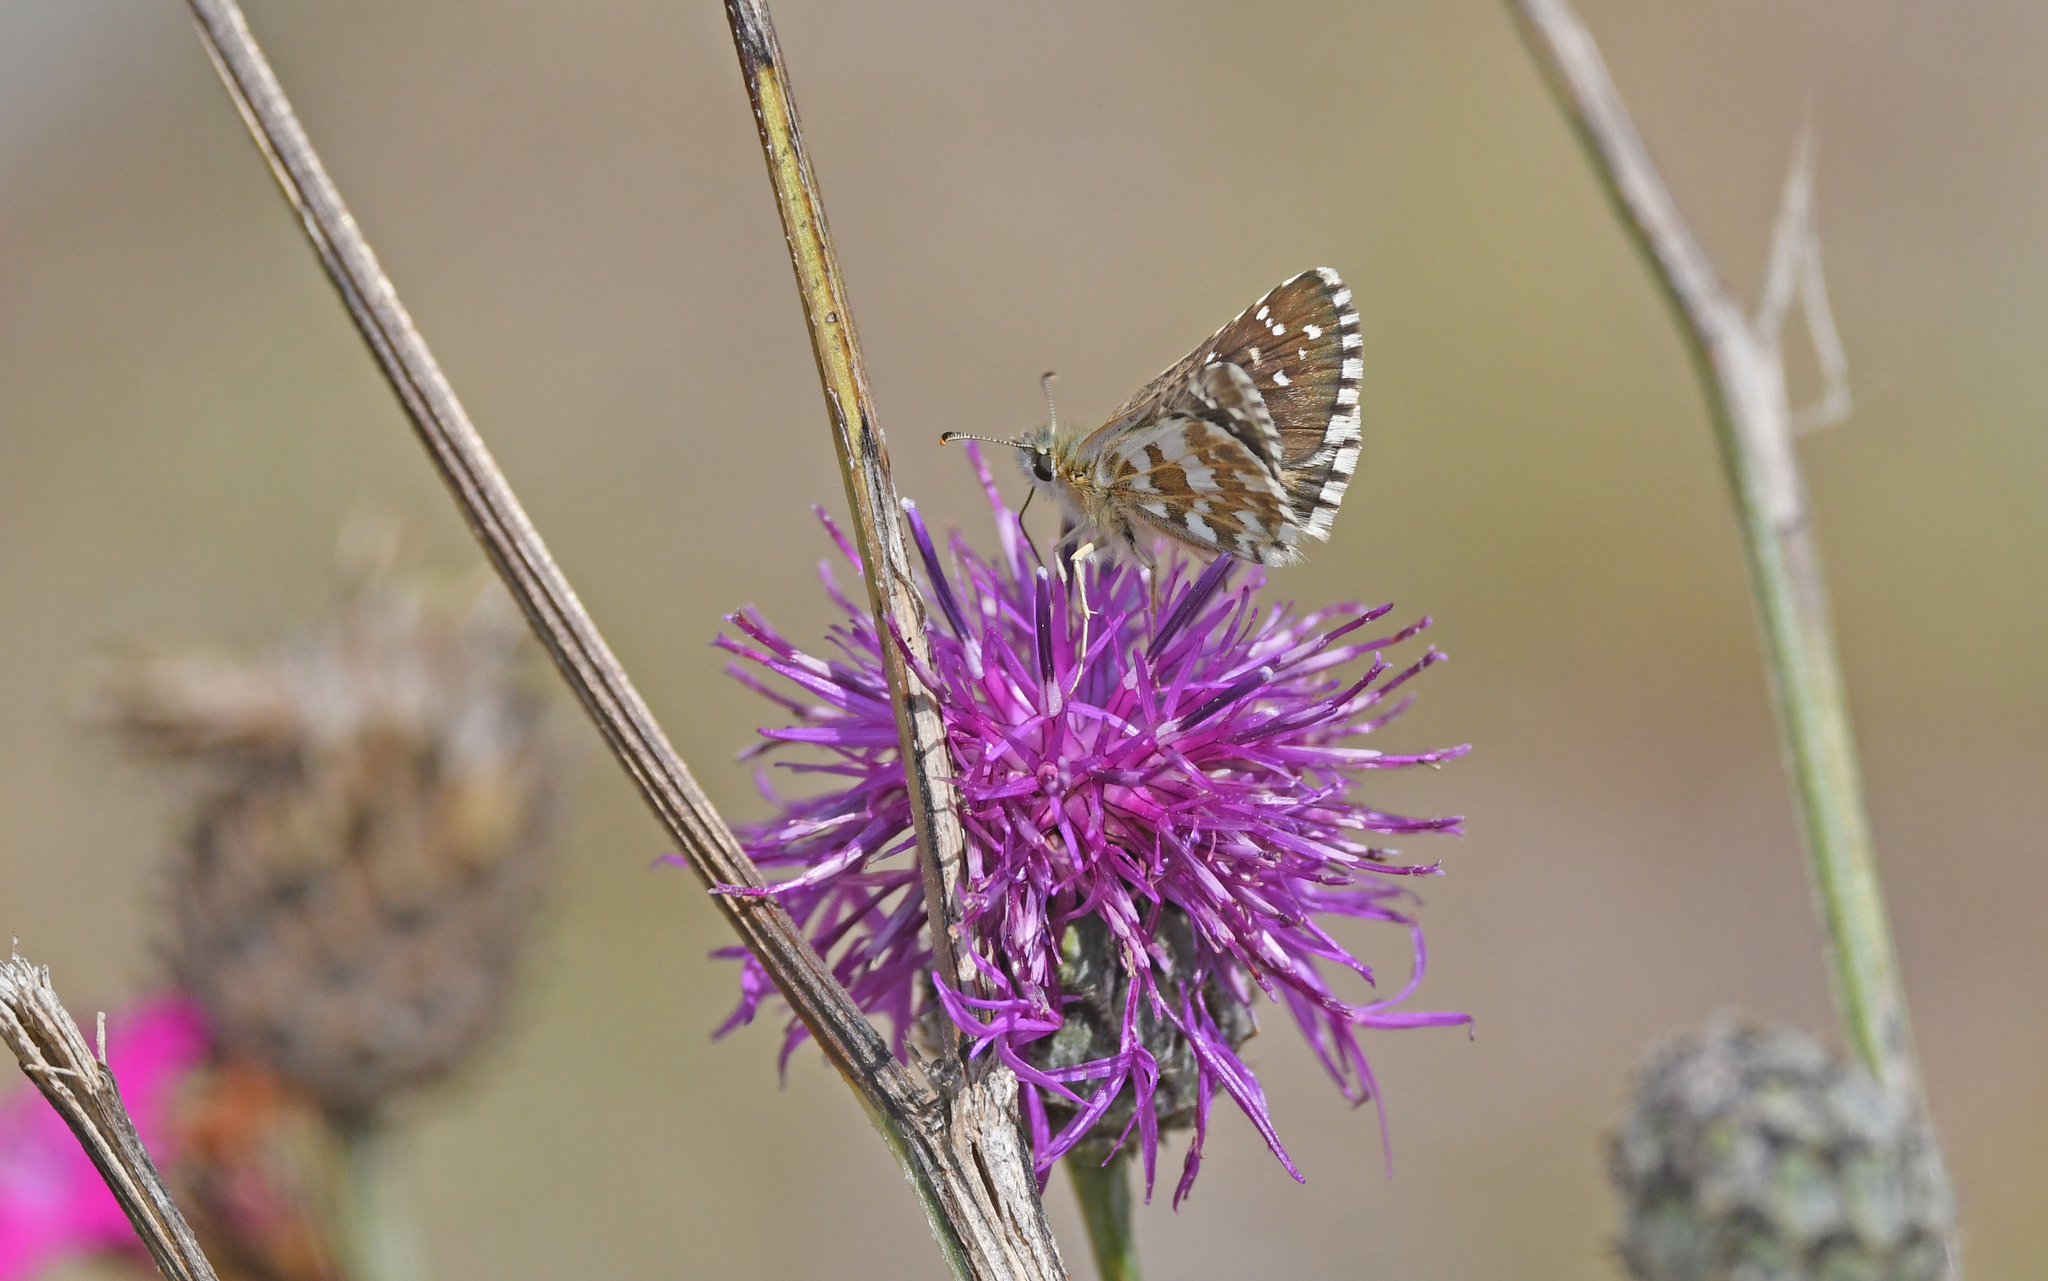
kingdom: Animalia
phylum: Arthropoda
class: Insecta
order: Lepidoptera
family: Hesperiidae
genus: Pyrgus
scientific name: Pyrgus armoricanus
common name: Oberthür's grizzled skipper
